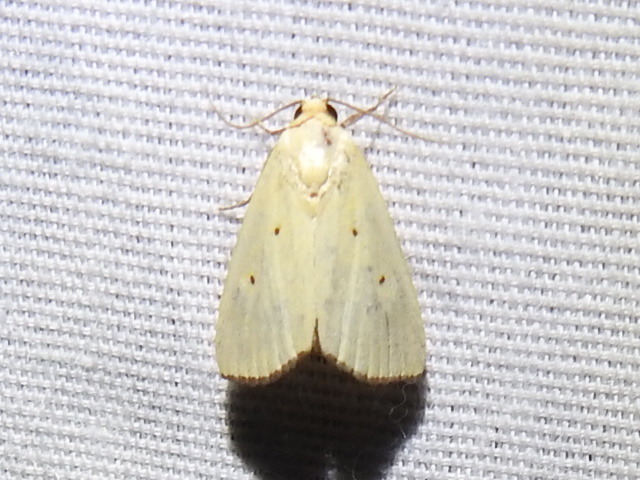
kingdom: Animalia
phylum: Arthropoda
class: Insecta
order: Lepidoptera
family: Noctuidae
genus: Marimatha
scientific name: Marimatha nigrofimbria
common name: Black-bordered lemon moth
